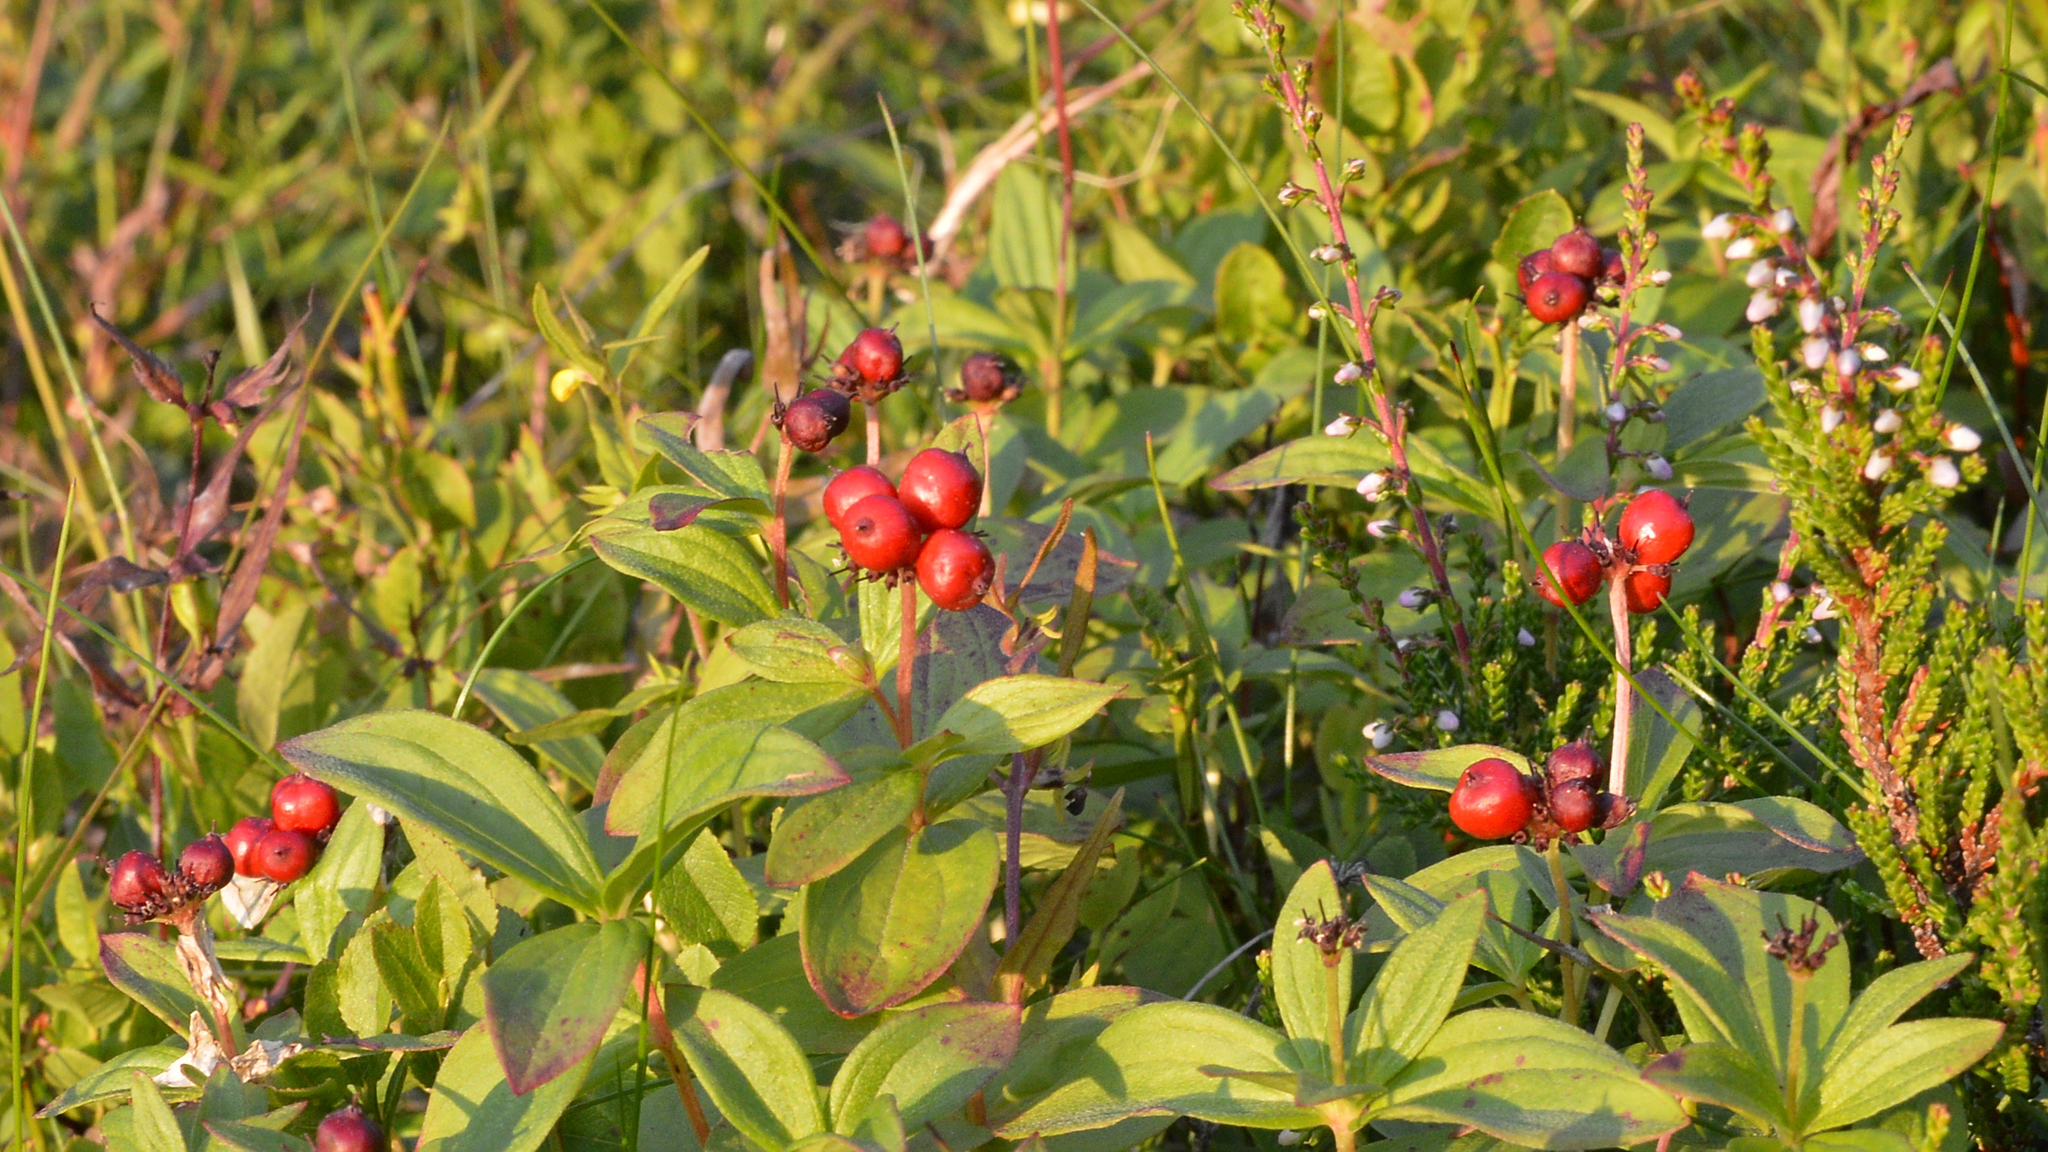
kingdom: Plantae
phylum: Tracheophyta
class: Magnoliopsida
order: Cornales
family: Cornaceae
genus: Cornus
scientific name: Cornus suecica
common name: Dwarf cornel
